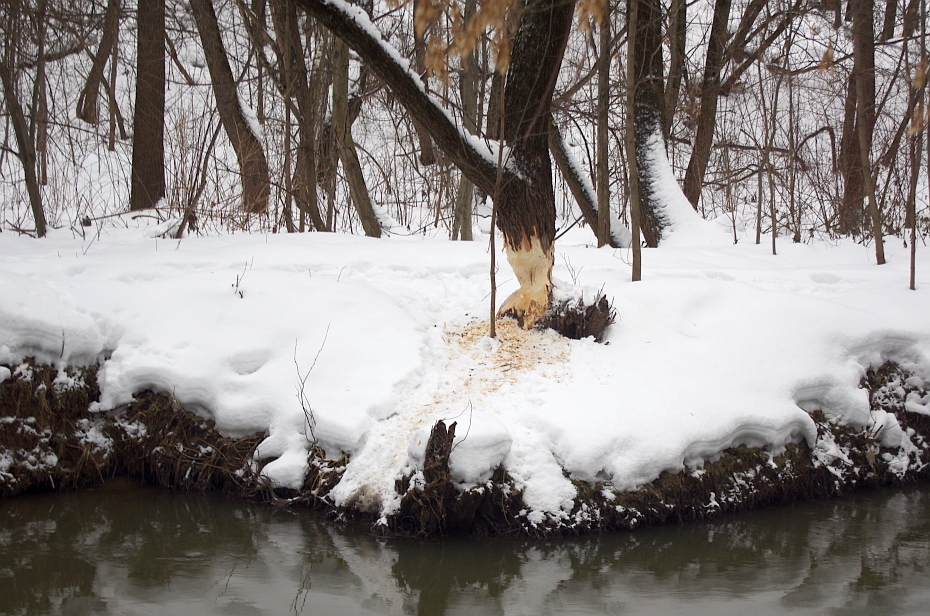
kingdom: Animalia
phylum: Chordata
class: Mammalia
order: Rodentia
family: Castoridae
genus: Castor
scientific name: Castor fiber
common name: Eurasian beaver
